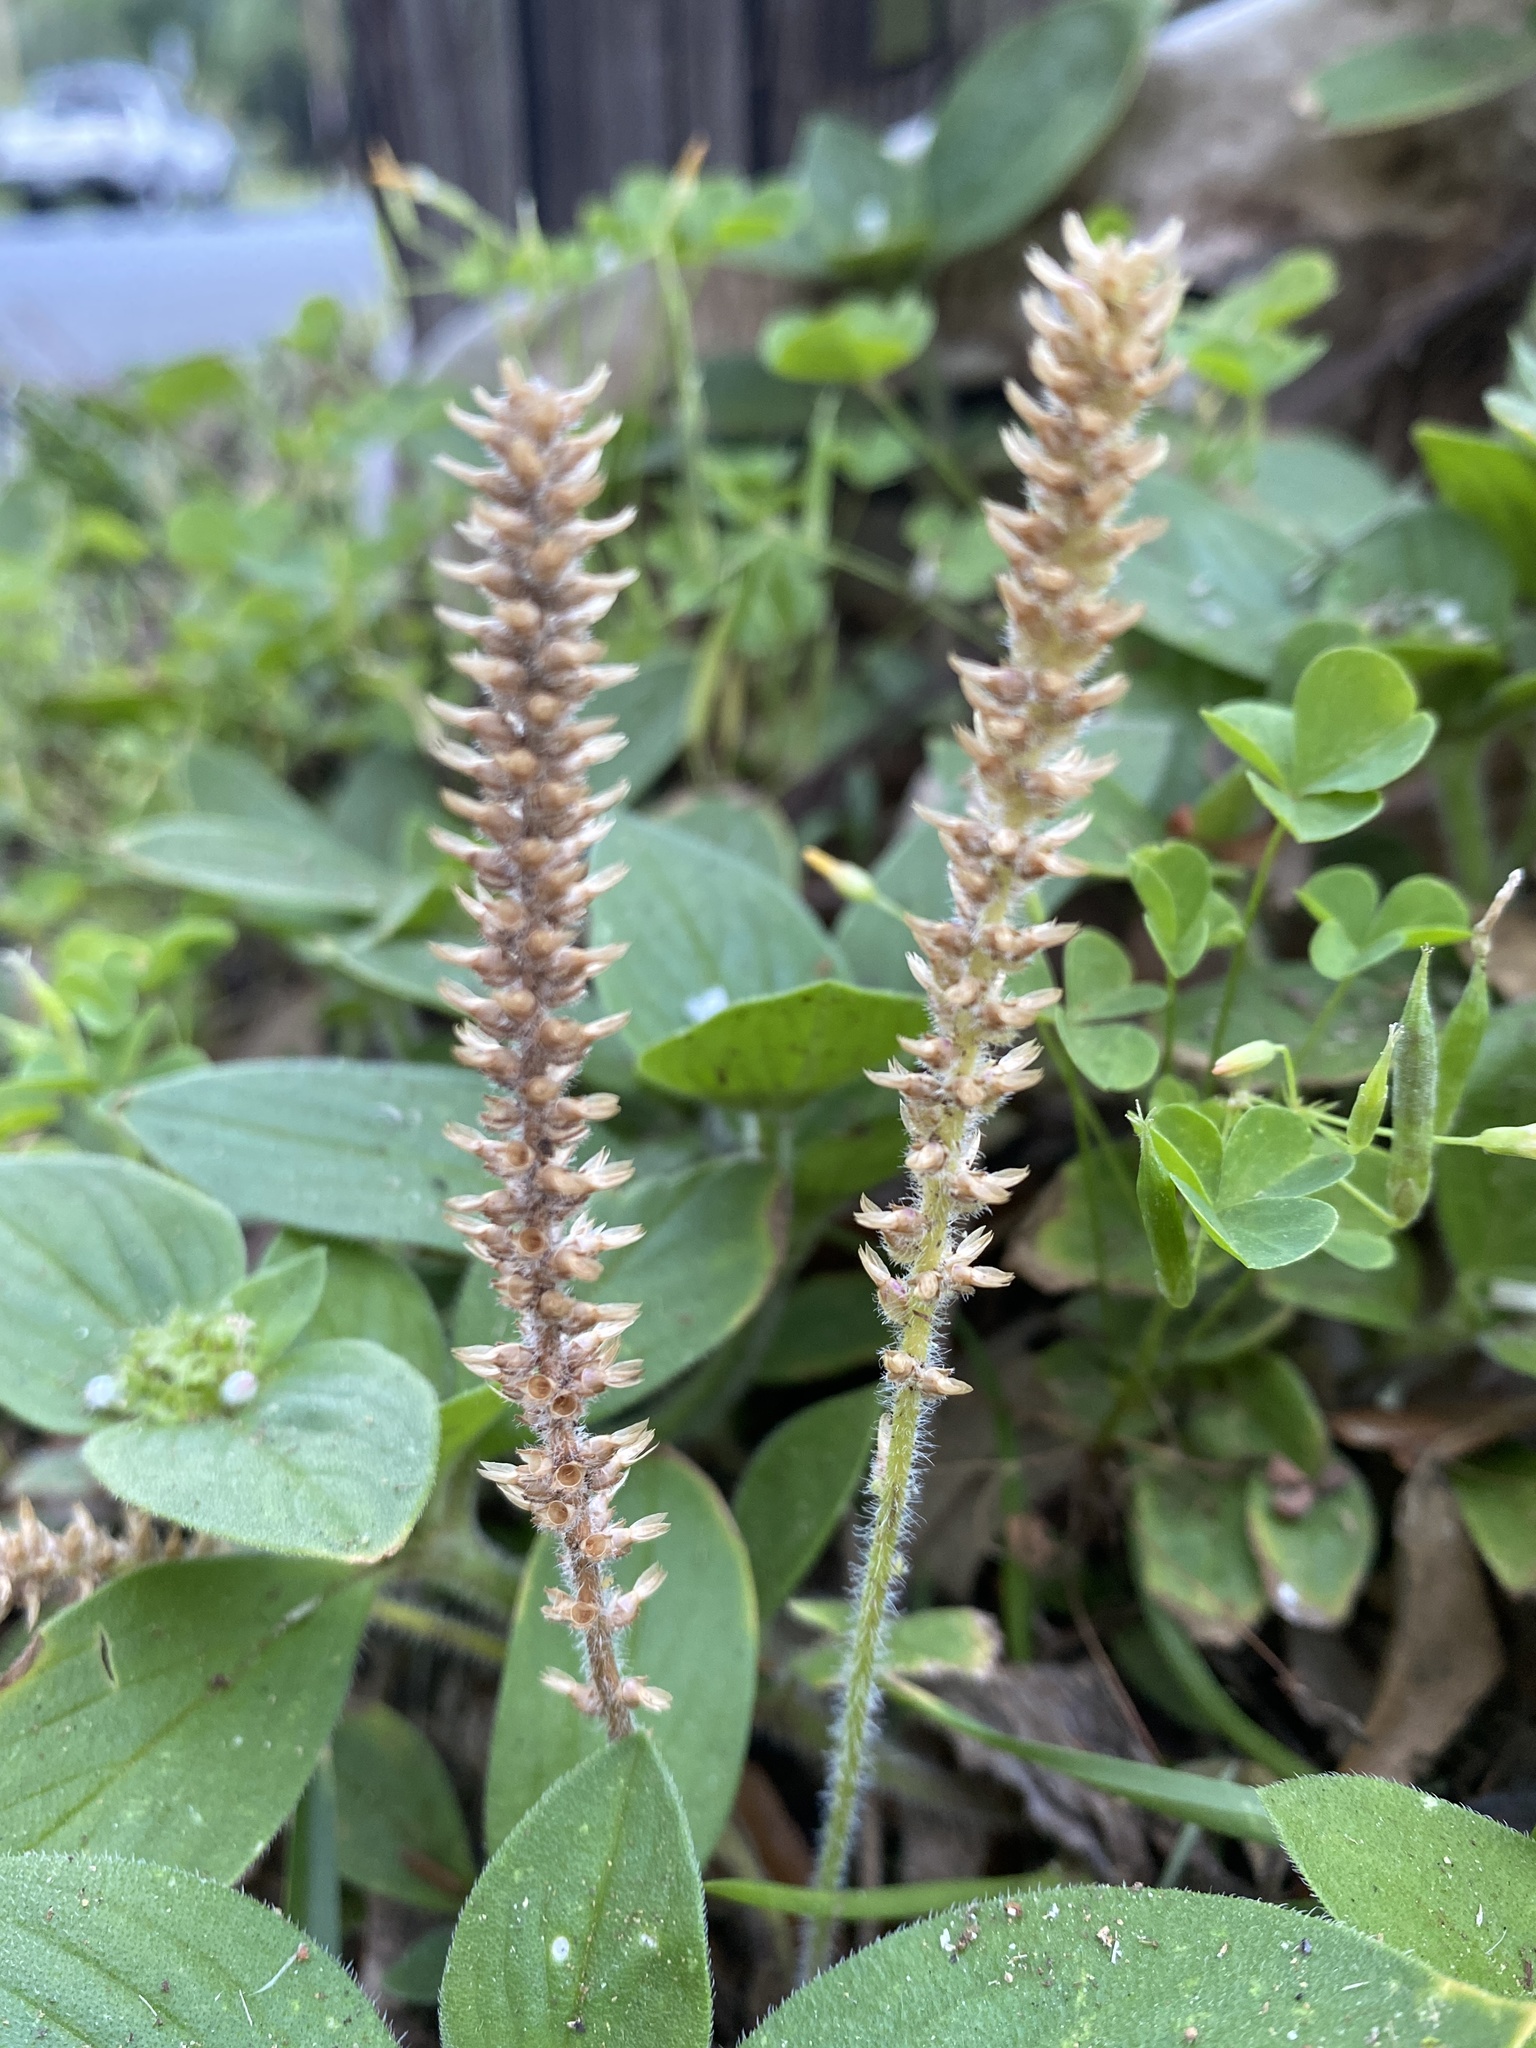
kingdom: Plantae
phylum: Tracheophyta
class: Magnoliopsida
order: Lamiales
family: Plantaginaceae
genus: Plantago
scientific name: Plantago virginica
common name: Hoary plantain
